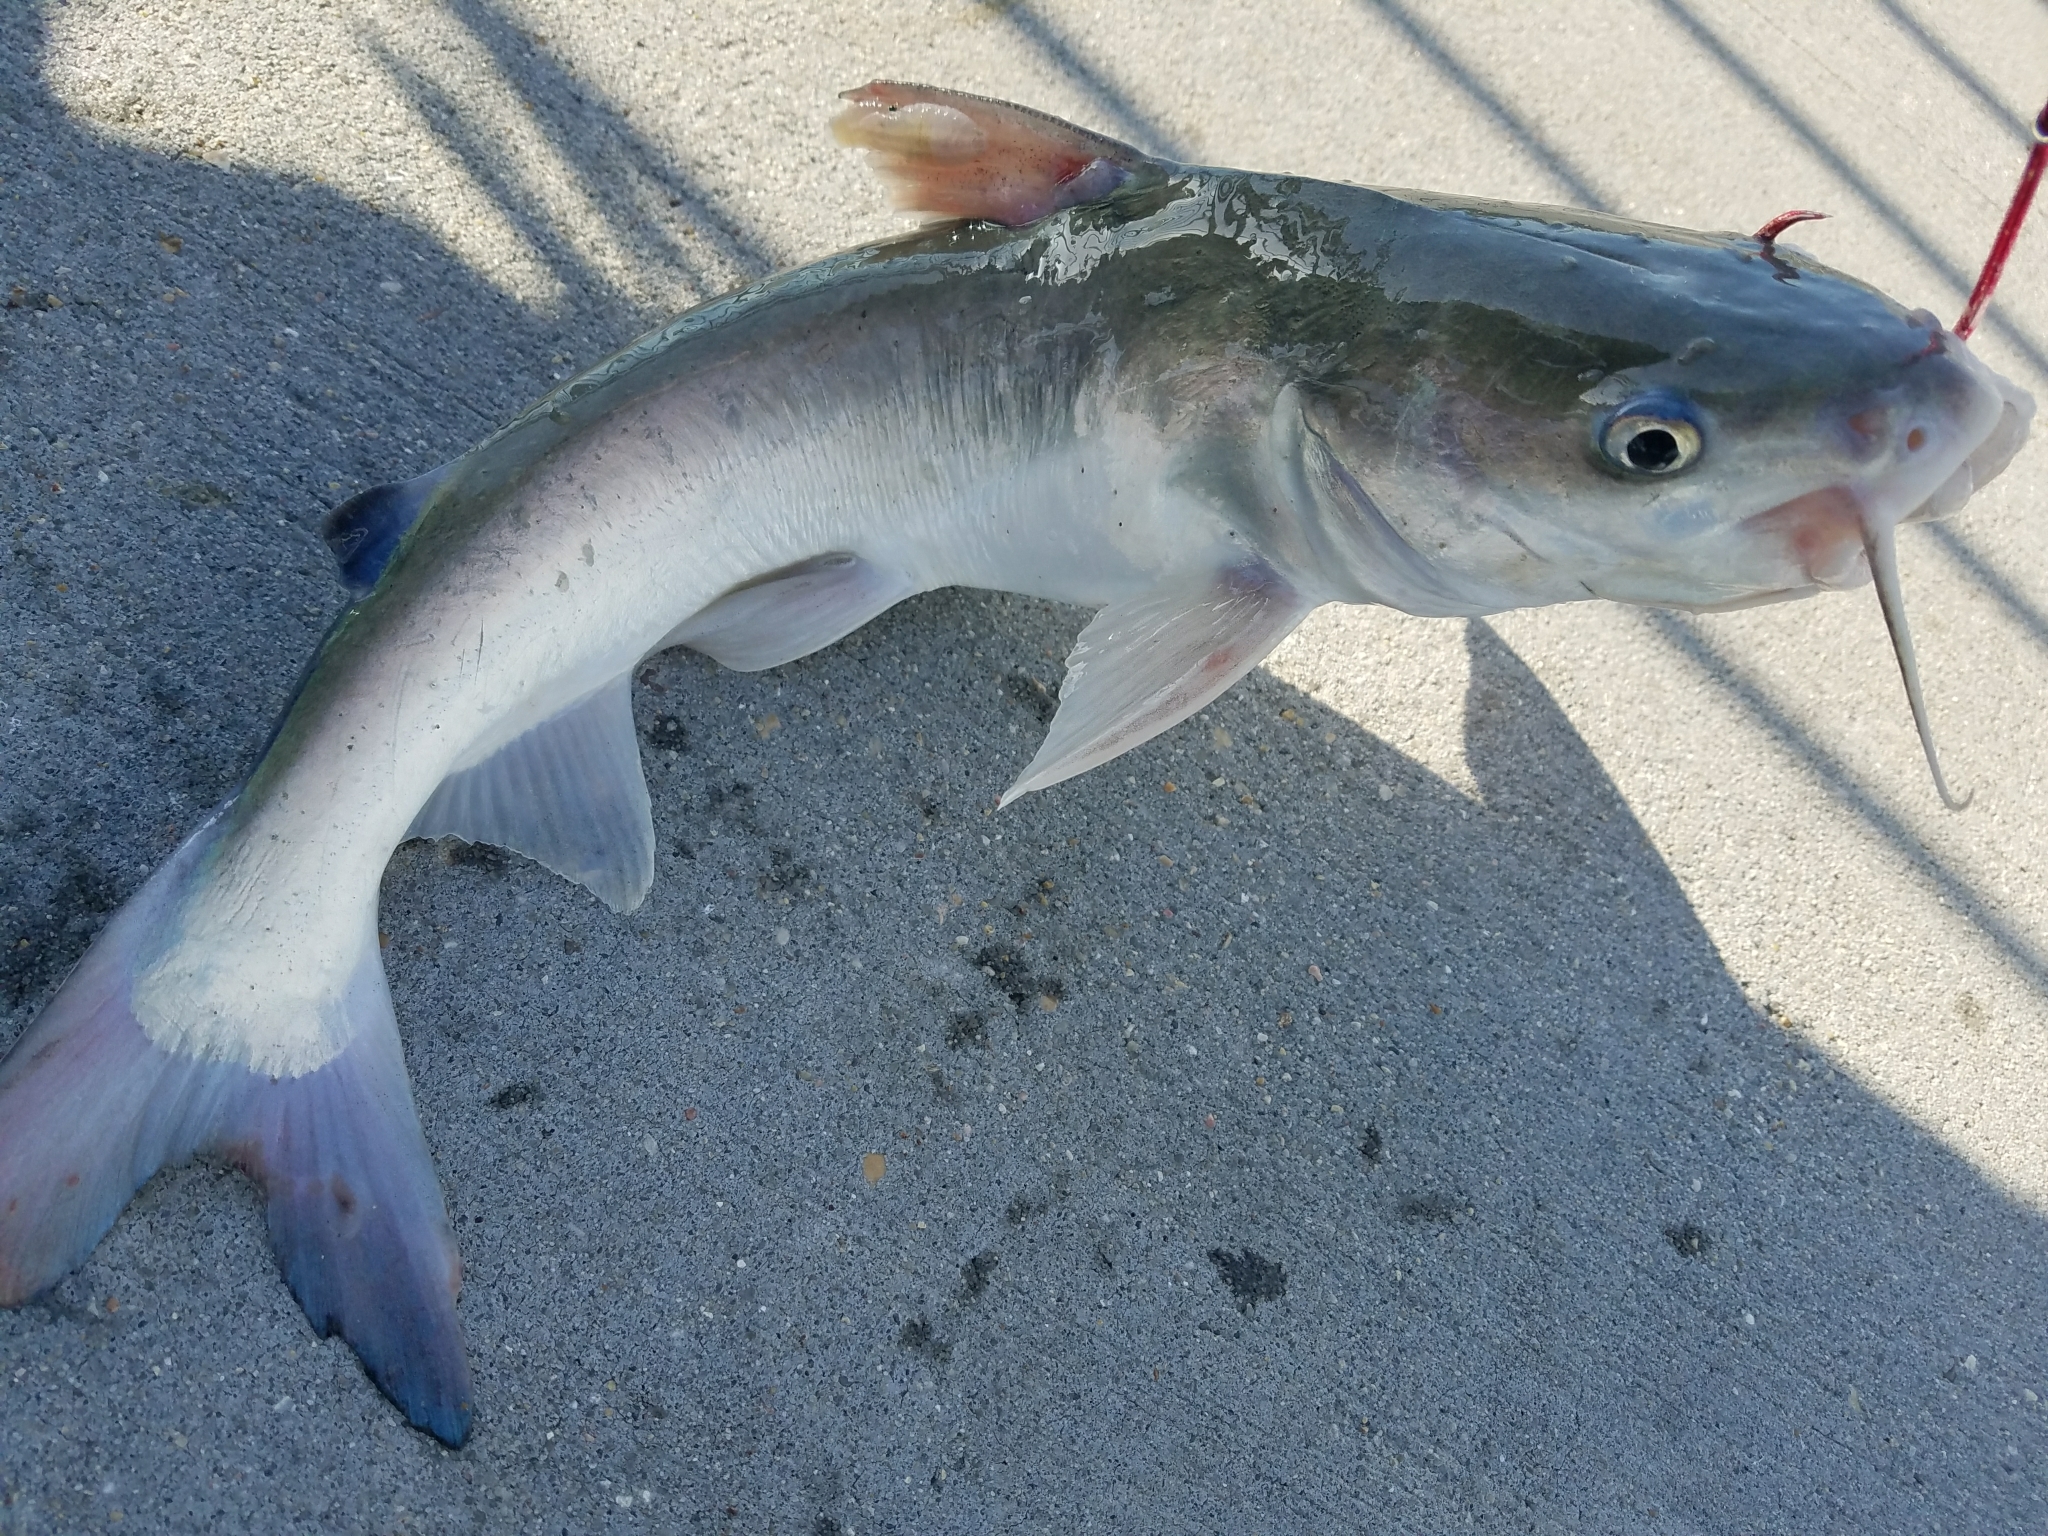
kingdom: Animalia
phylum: Chordata
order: Siluriformes
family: Ariidae
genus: Ariopsis
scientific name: Ariopsis felis
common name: Hardhead catfish
